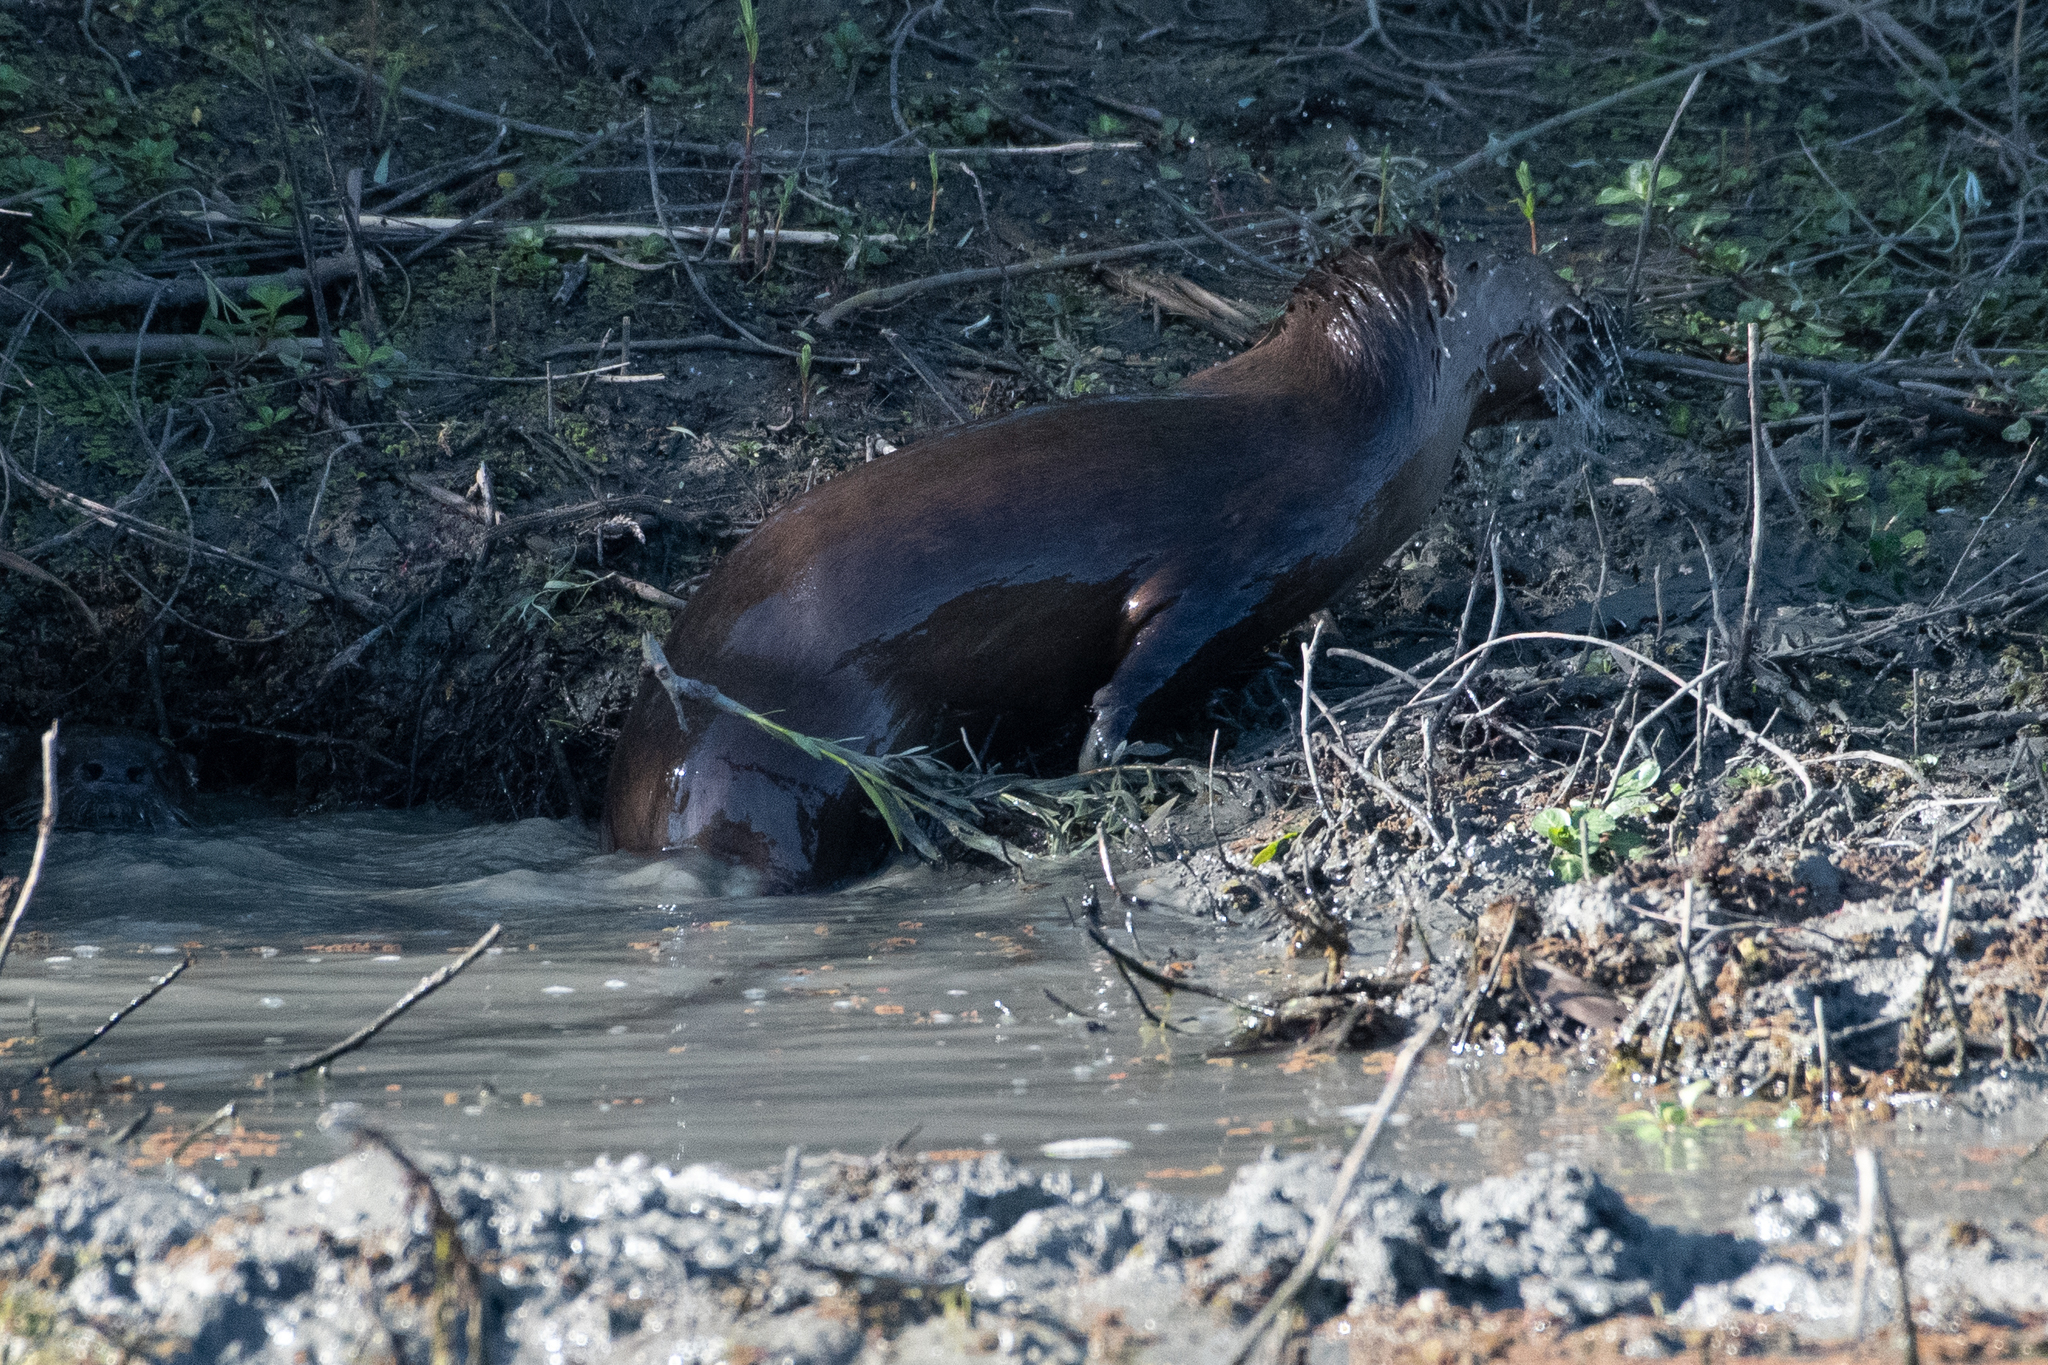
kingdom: Animalia
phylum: Chordata
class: Mammalia
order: Carnivora
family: Mustelidae
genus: Lontra
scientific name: Lontra canadensis
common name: North american river otter
